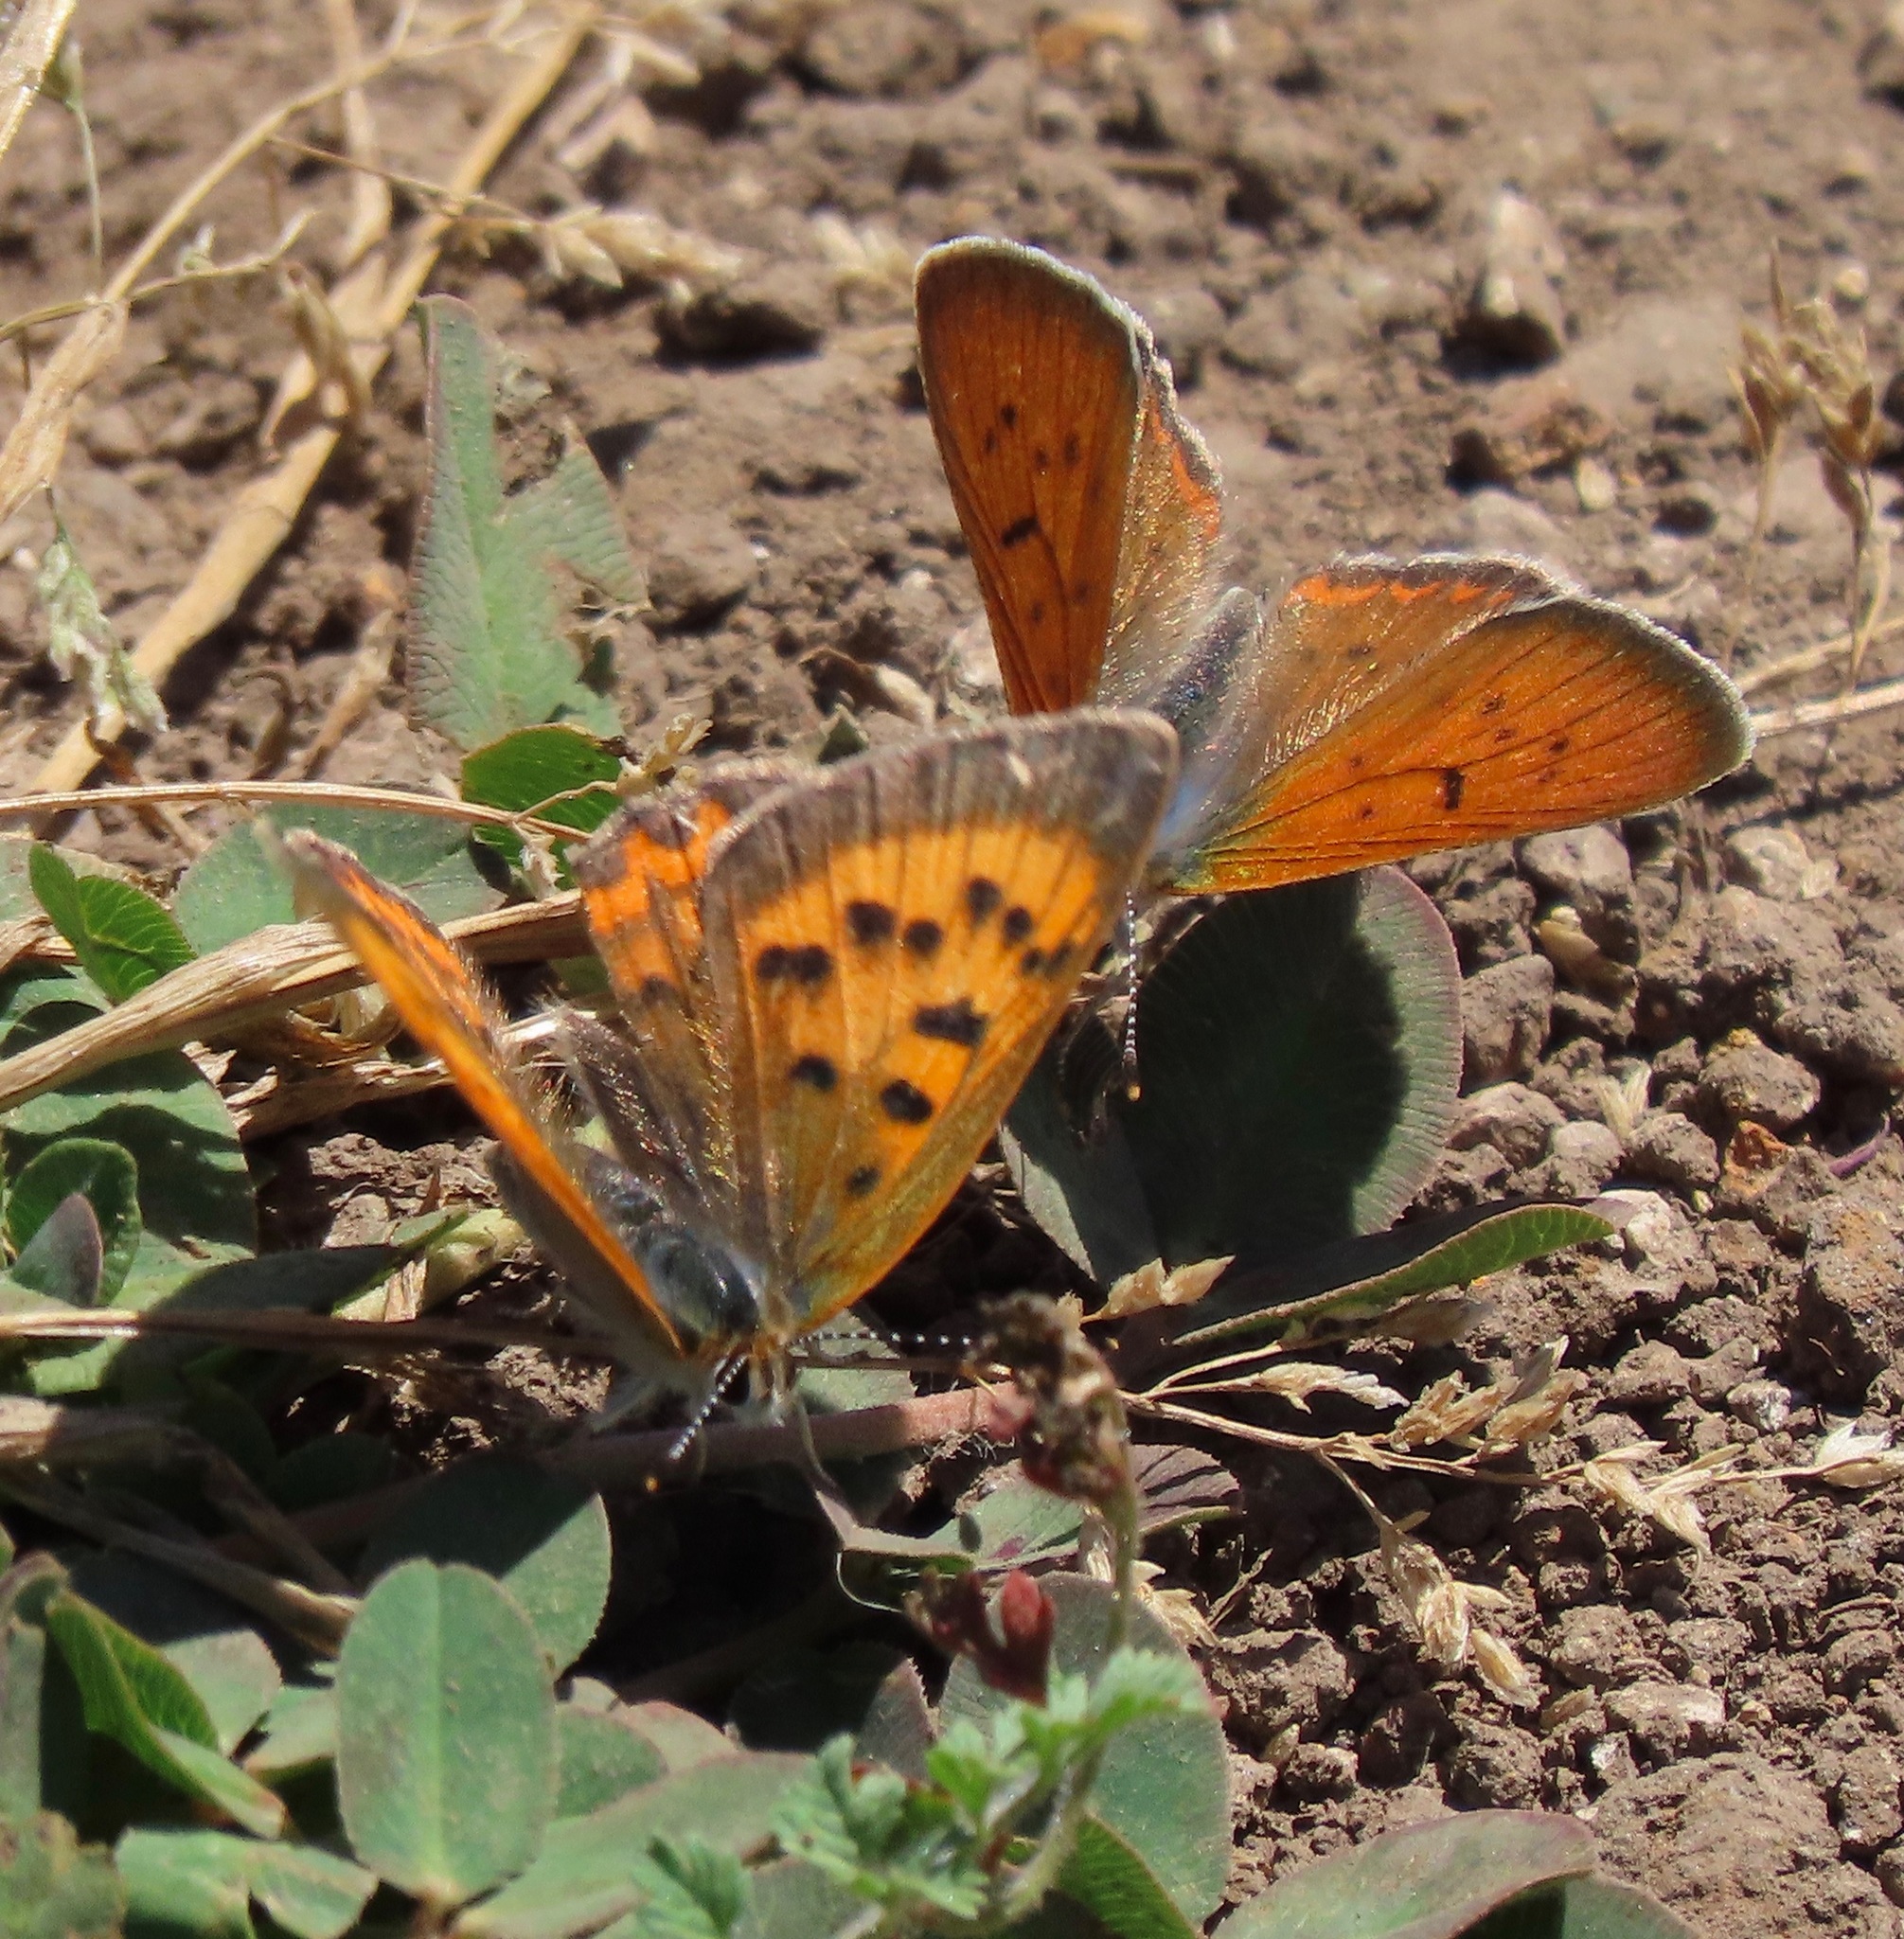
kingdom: Animalia
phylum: Arthropoda
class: Insecta
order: Lepidoptera
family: Lycaenidae
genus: Tharsalea
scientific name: Tharsalea helloides
